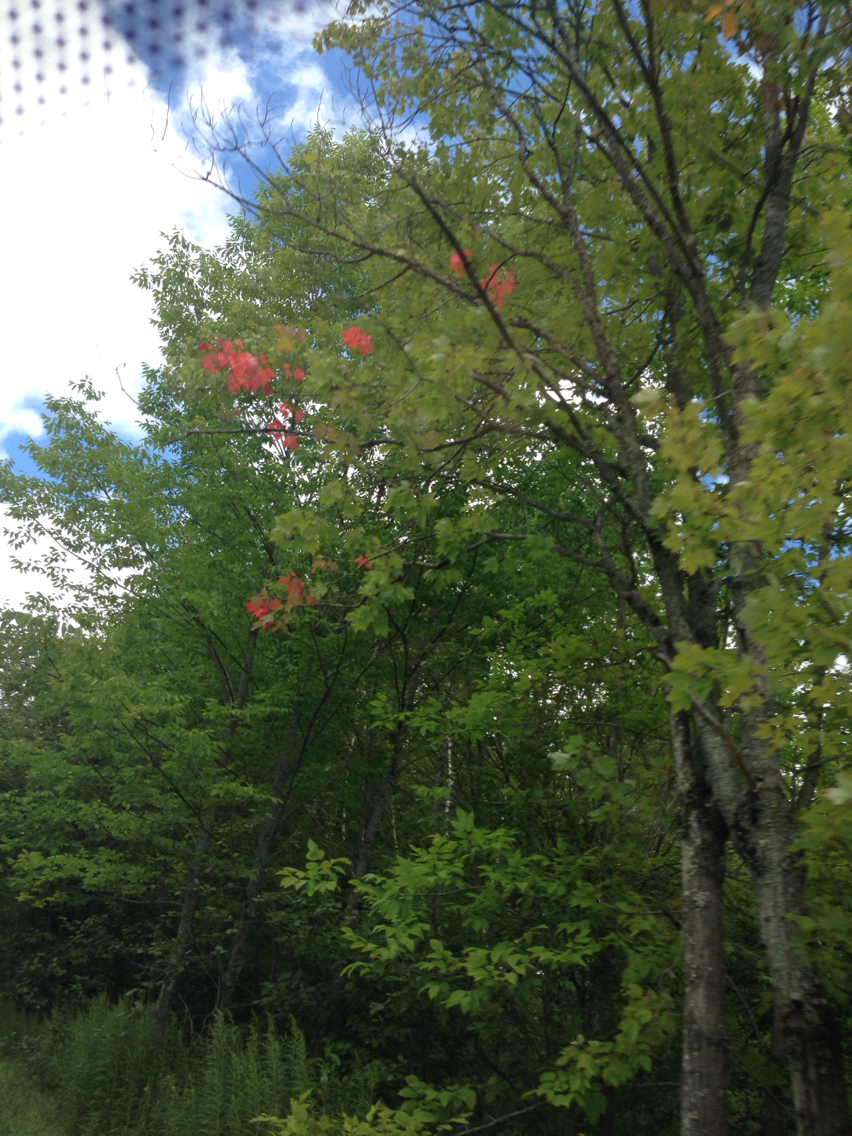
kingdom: Plantae
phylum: Tracheophyta
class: Magnoliopsida
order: Sapindales
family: Sapindaceae
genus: Acer
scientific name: Acer rubrum
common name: Red maple
